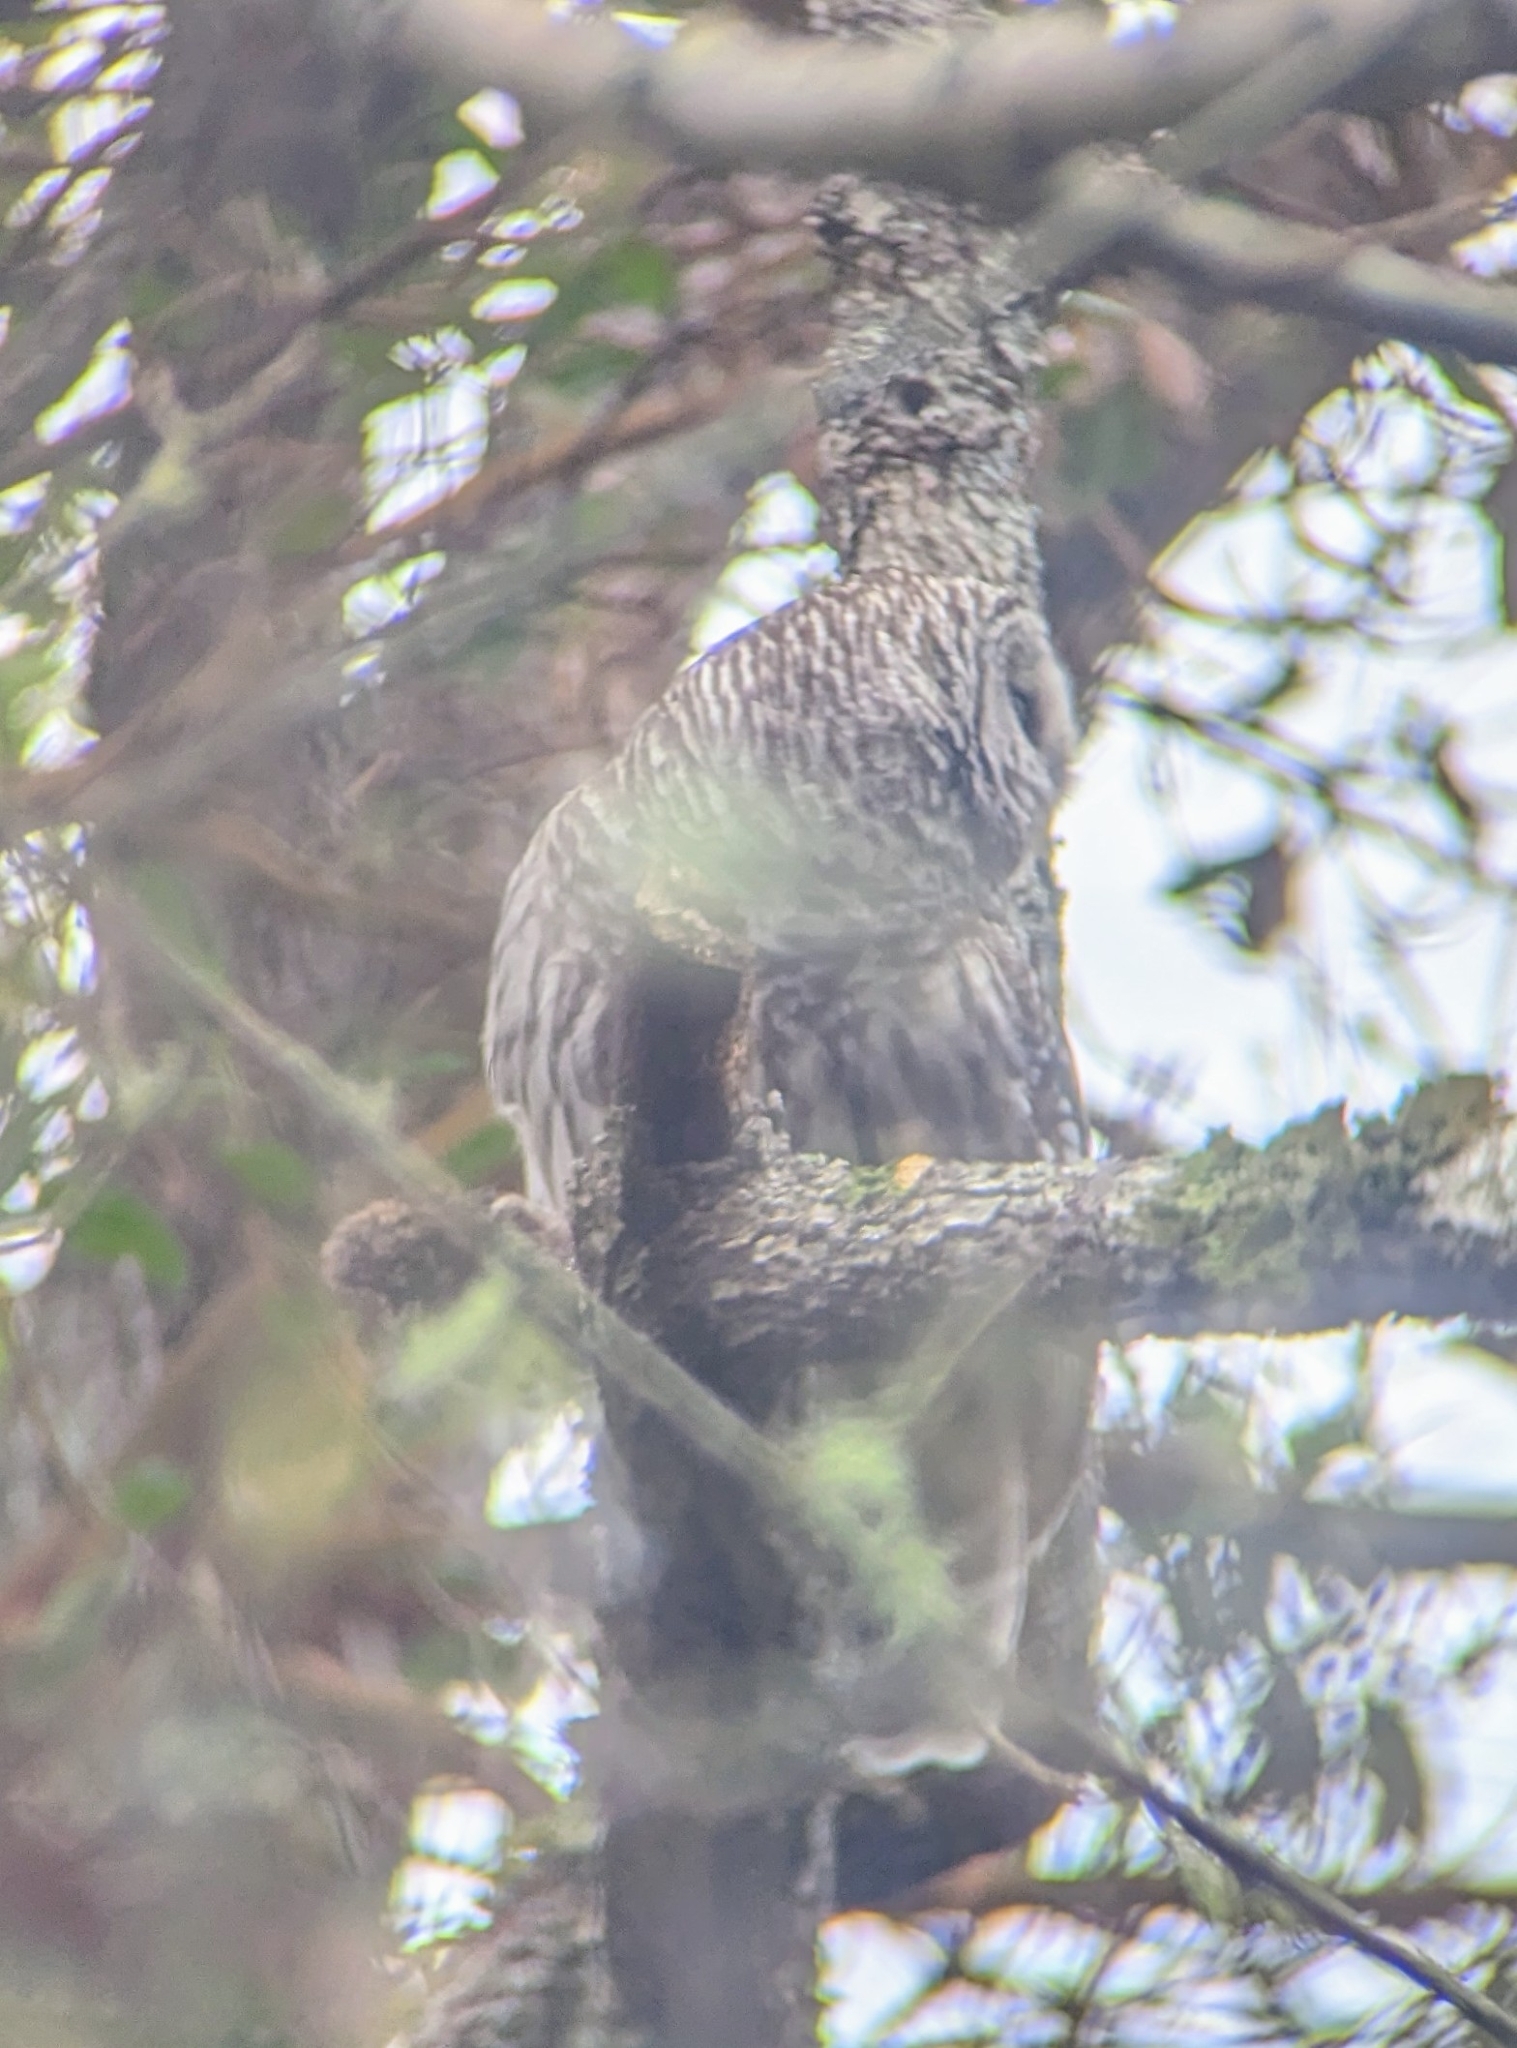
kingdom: Animalia
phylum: Chordata
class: Aves
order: Strigiformes
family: Strigidae
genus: Strix
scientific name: Strix varia
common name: Barred owl
